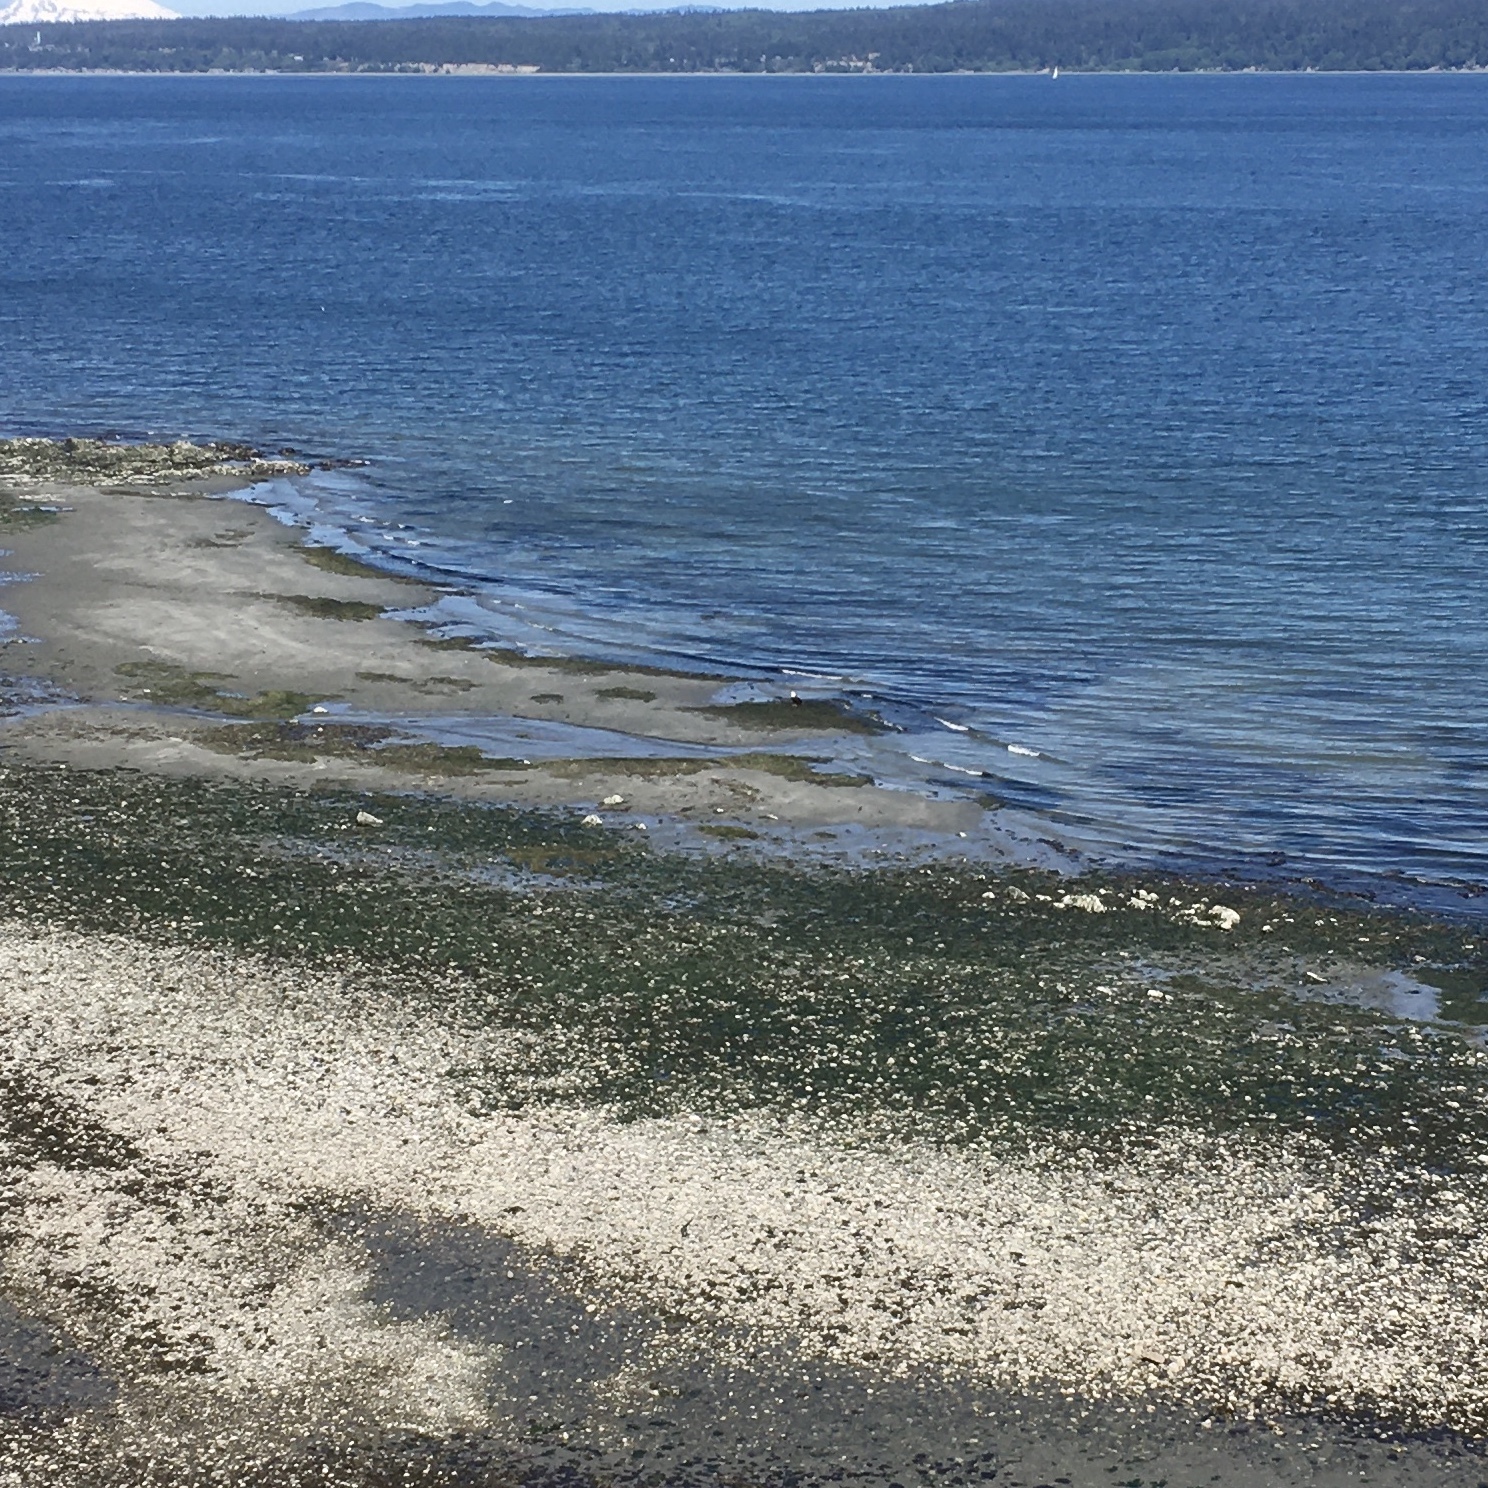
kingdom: Animalia
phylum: Chordata
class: Aves
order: Accipitriformes
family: Accipitridae
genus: Haliaeetus
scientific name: Haliaeetus leucocephalus
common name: Bald eagle
